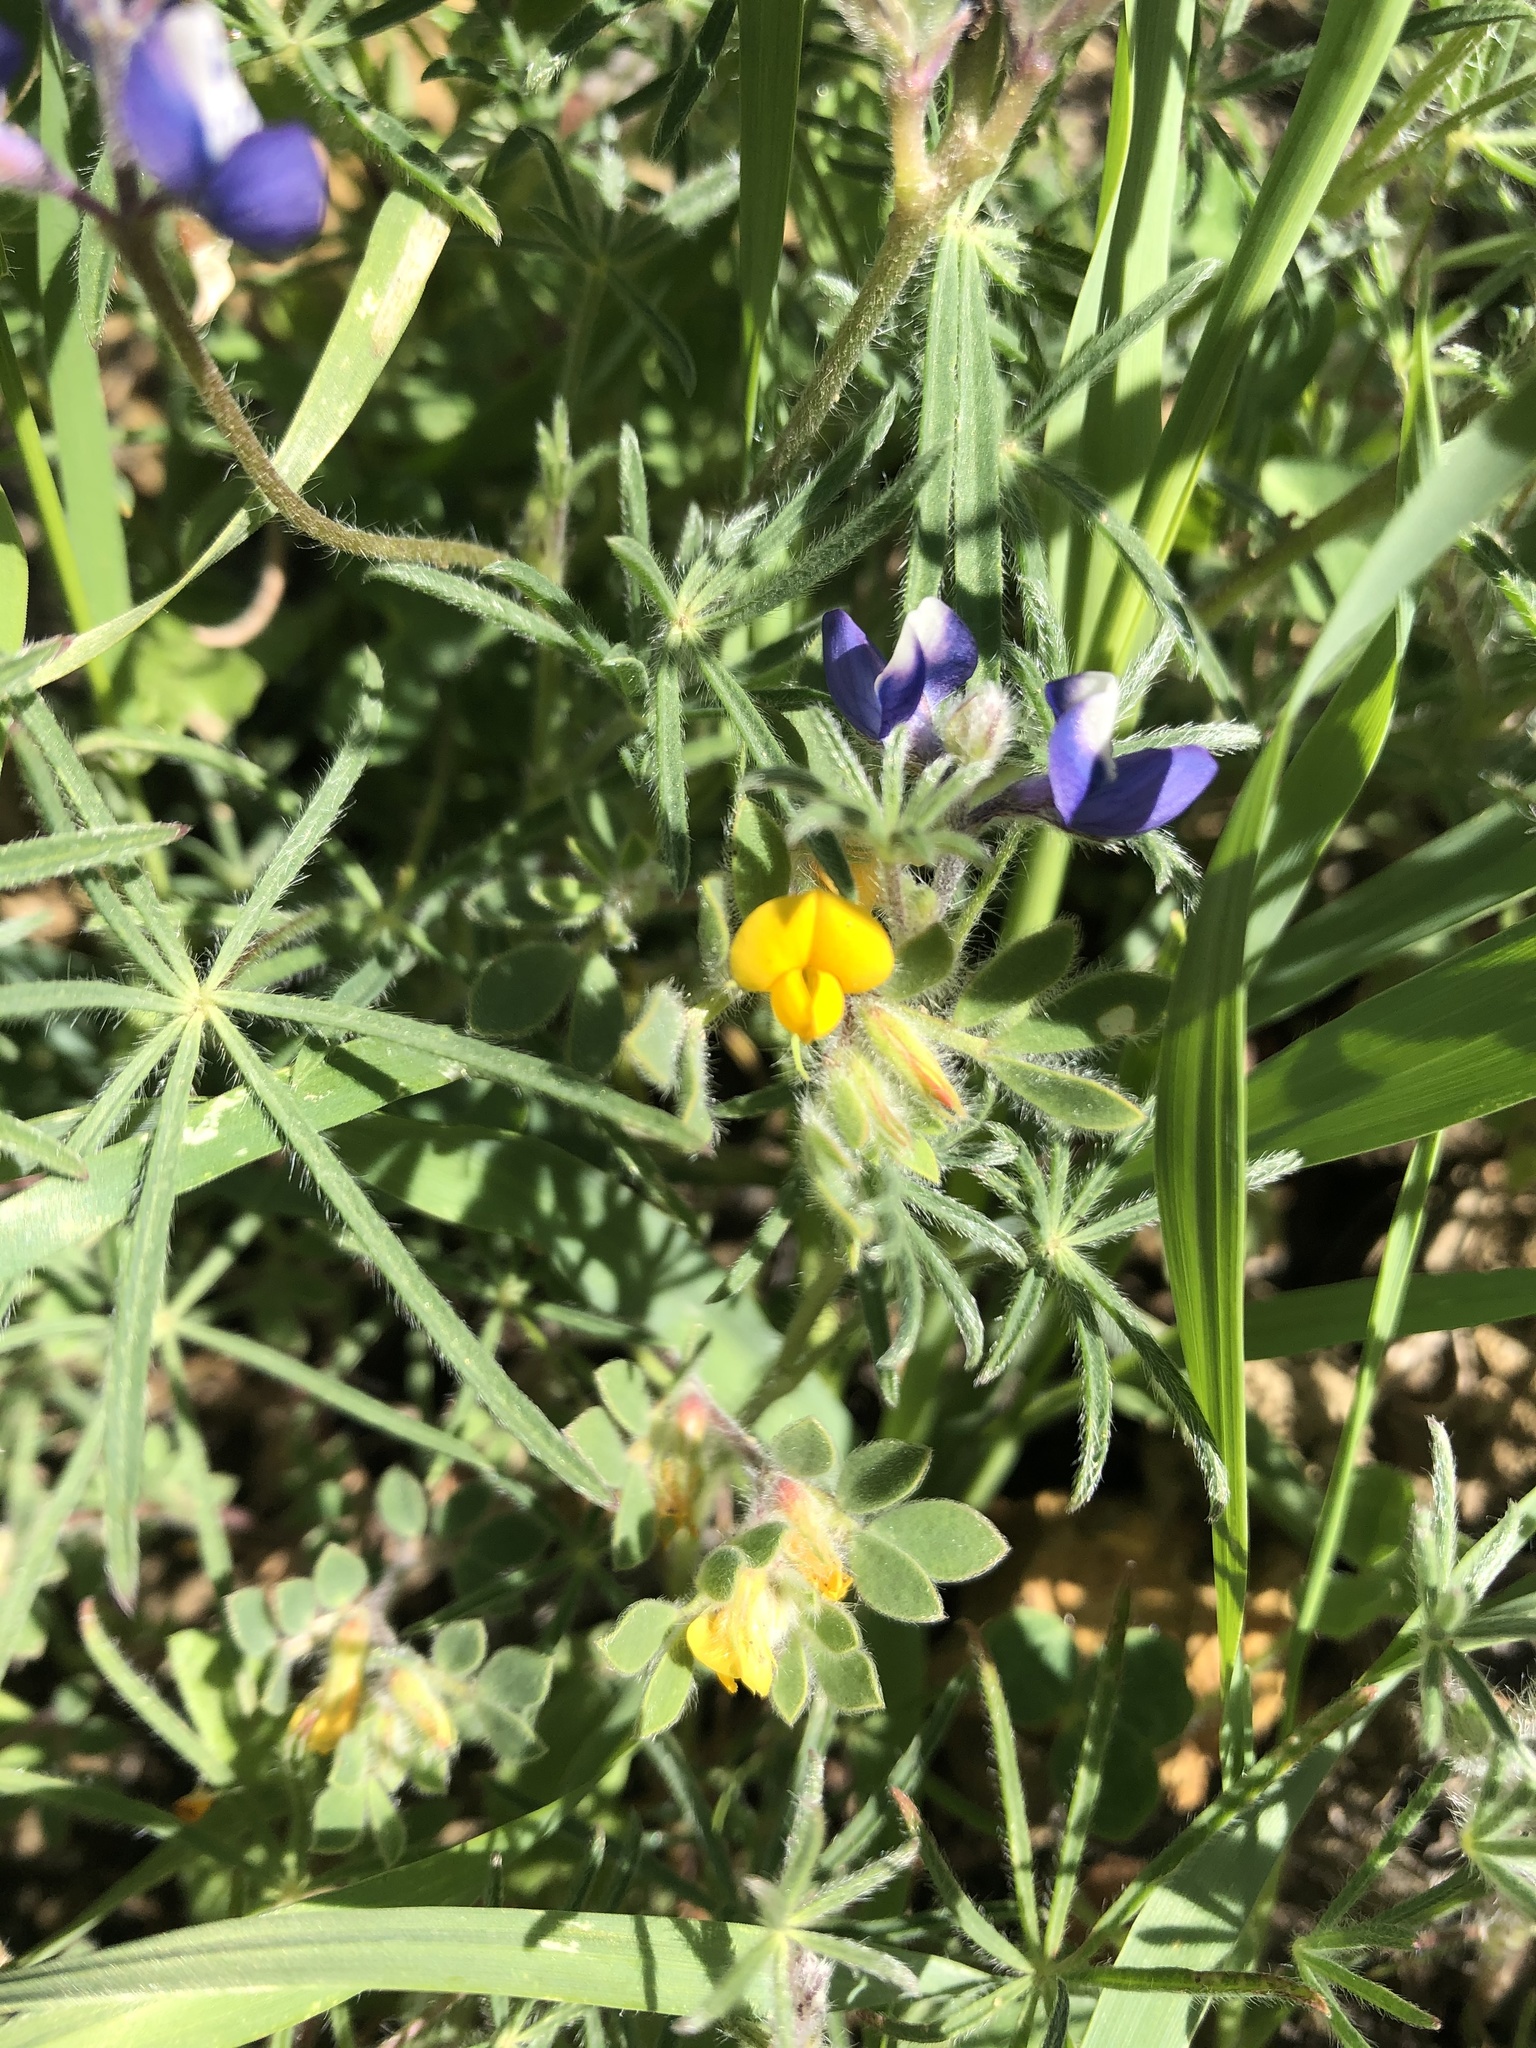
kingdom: Plantae
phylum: Tracheophyta
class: Magnoliopsida
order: Fabales
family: Fabaceae
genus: Acmispon
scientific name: Acmispon brachycarpus
